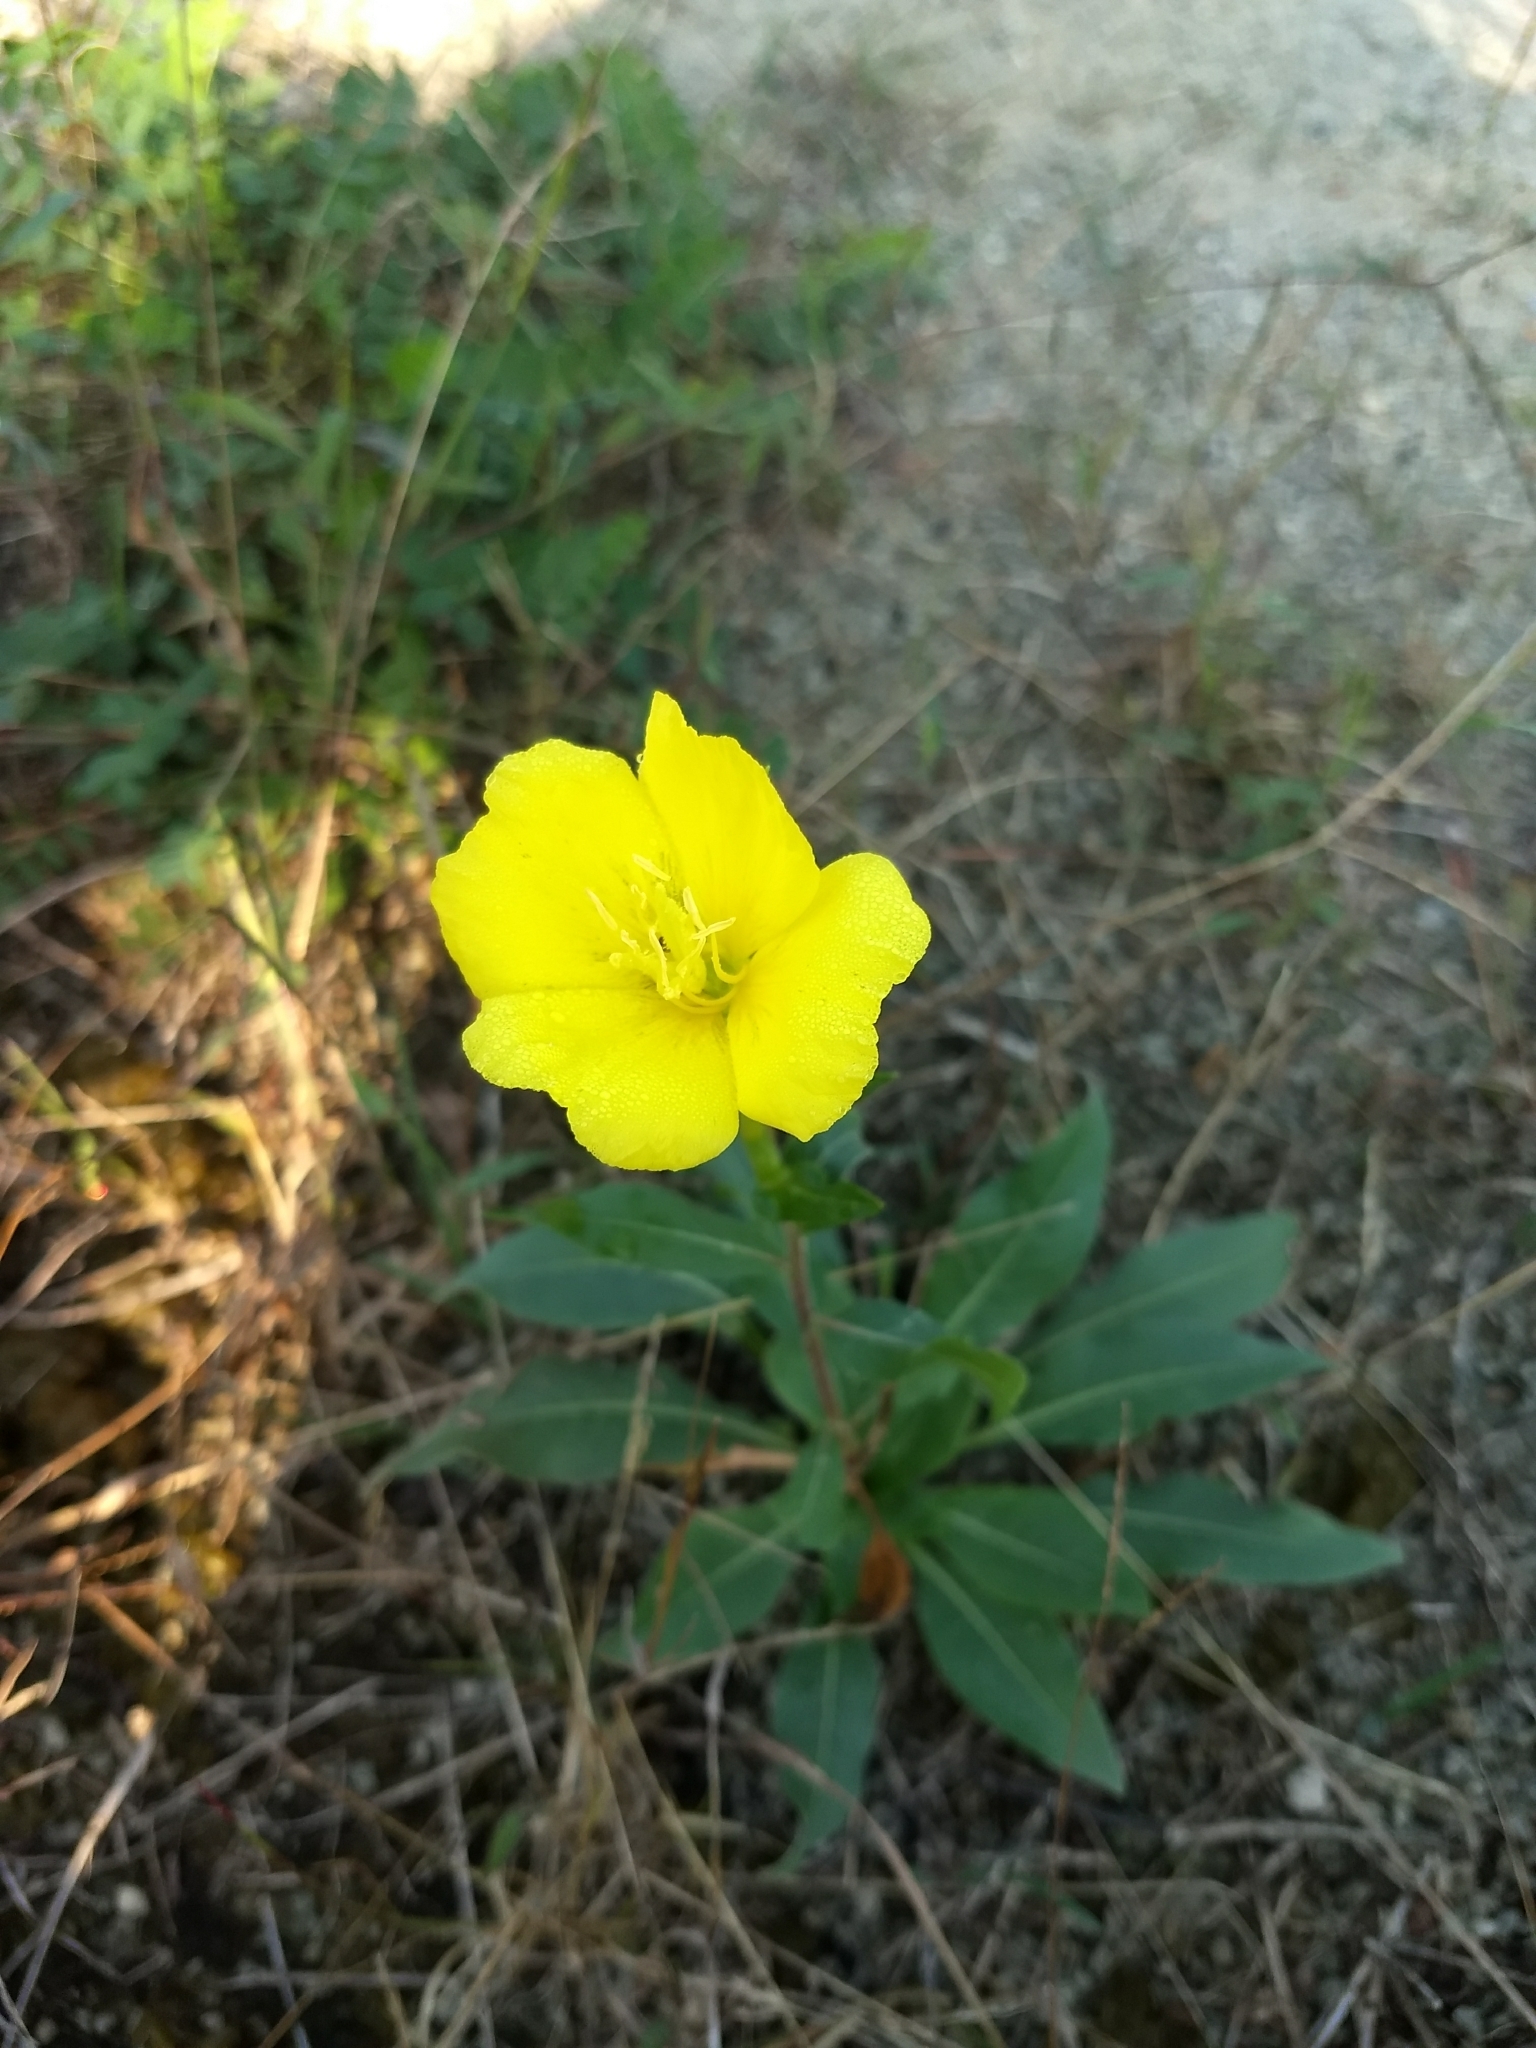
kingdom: Plantae
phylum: Tracheophyta
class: Magnoliopsida
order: Myrtales
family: Onagraceae
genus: Oenothera
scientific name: Oenothera biennis
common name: Common evening-primrose
